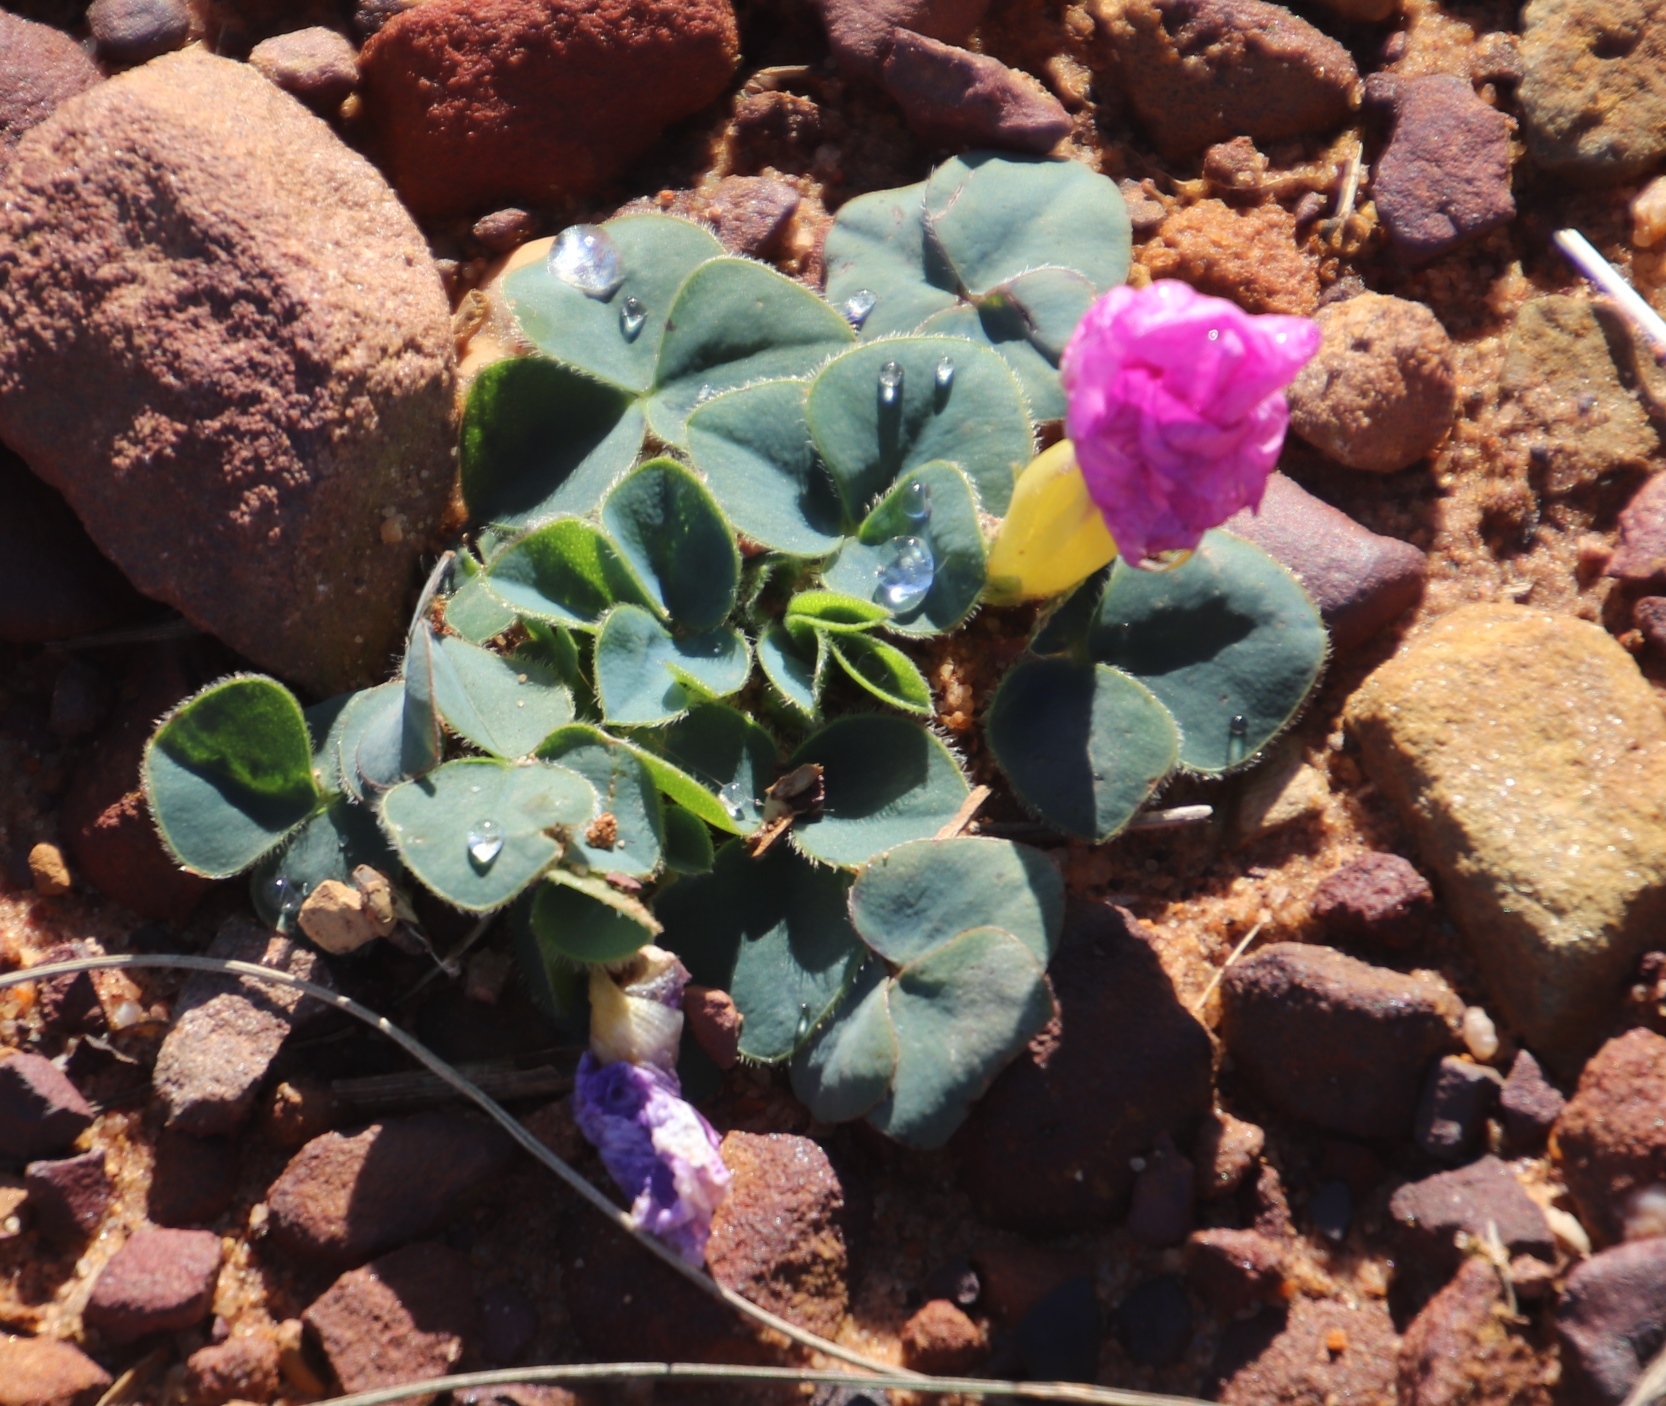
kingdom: Plantae
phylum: Tracheophyta
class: Magnoliopsida
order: Oxalidales
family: Oxalidaceae
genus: Oxalis
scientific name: Oxalis purpurea
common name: Purple woodsorrel
